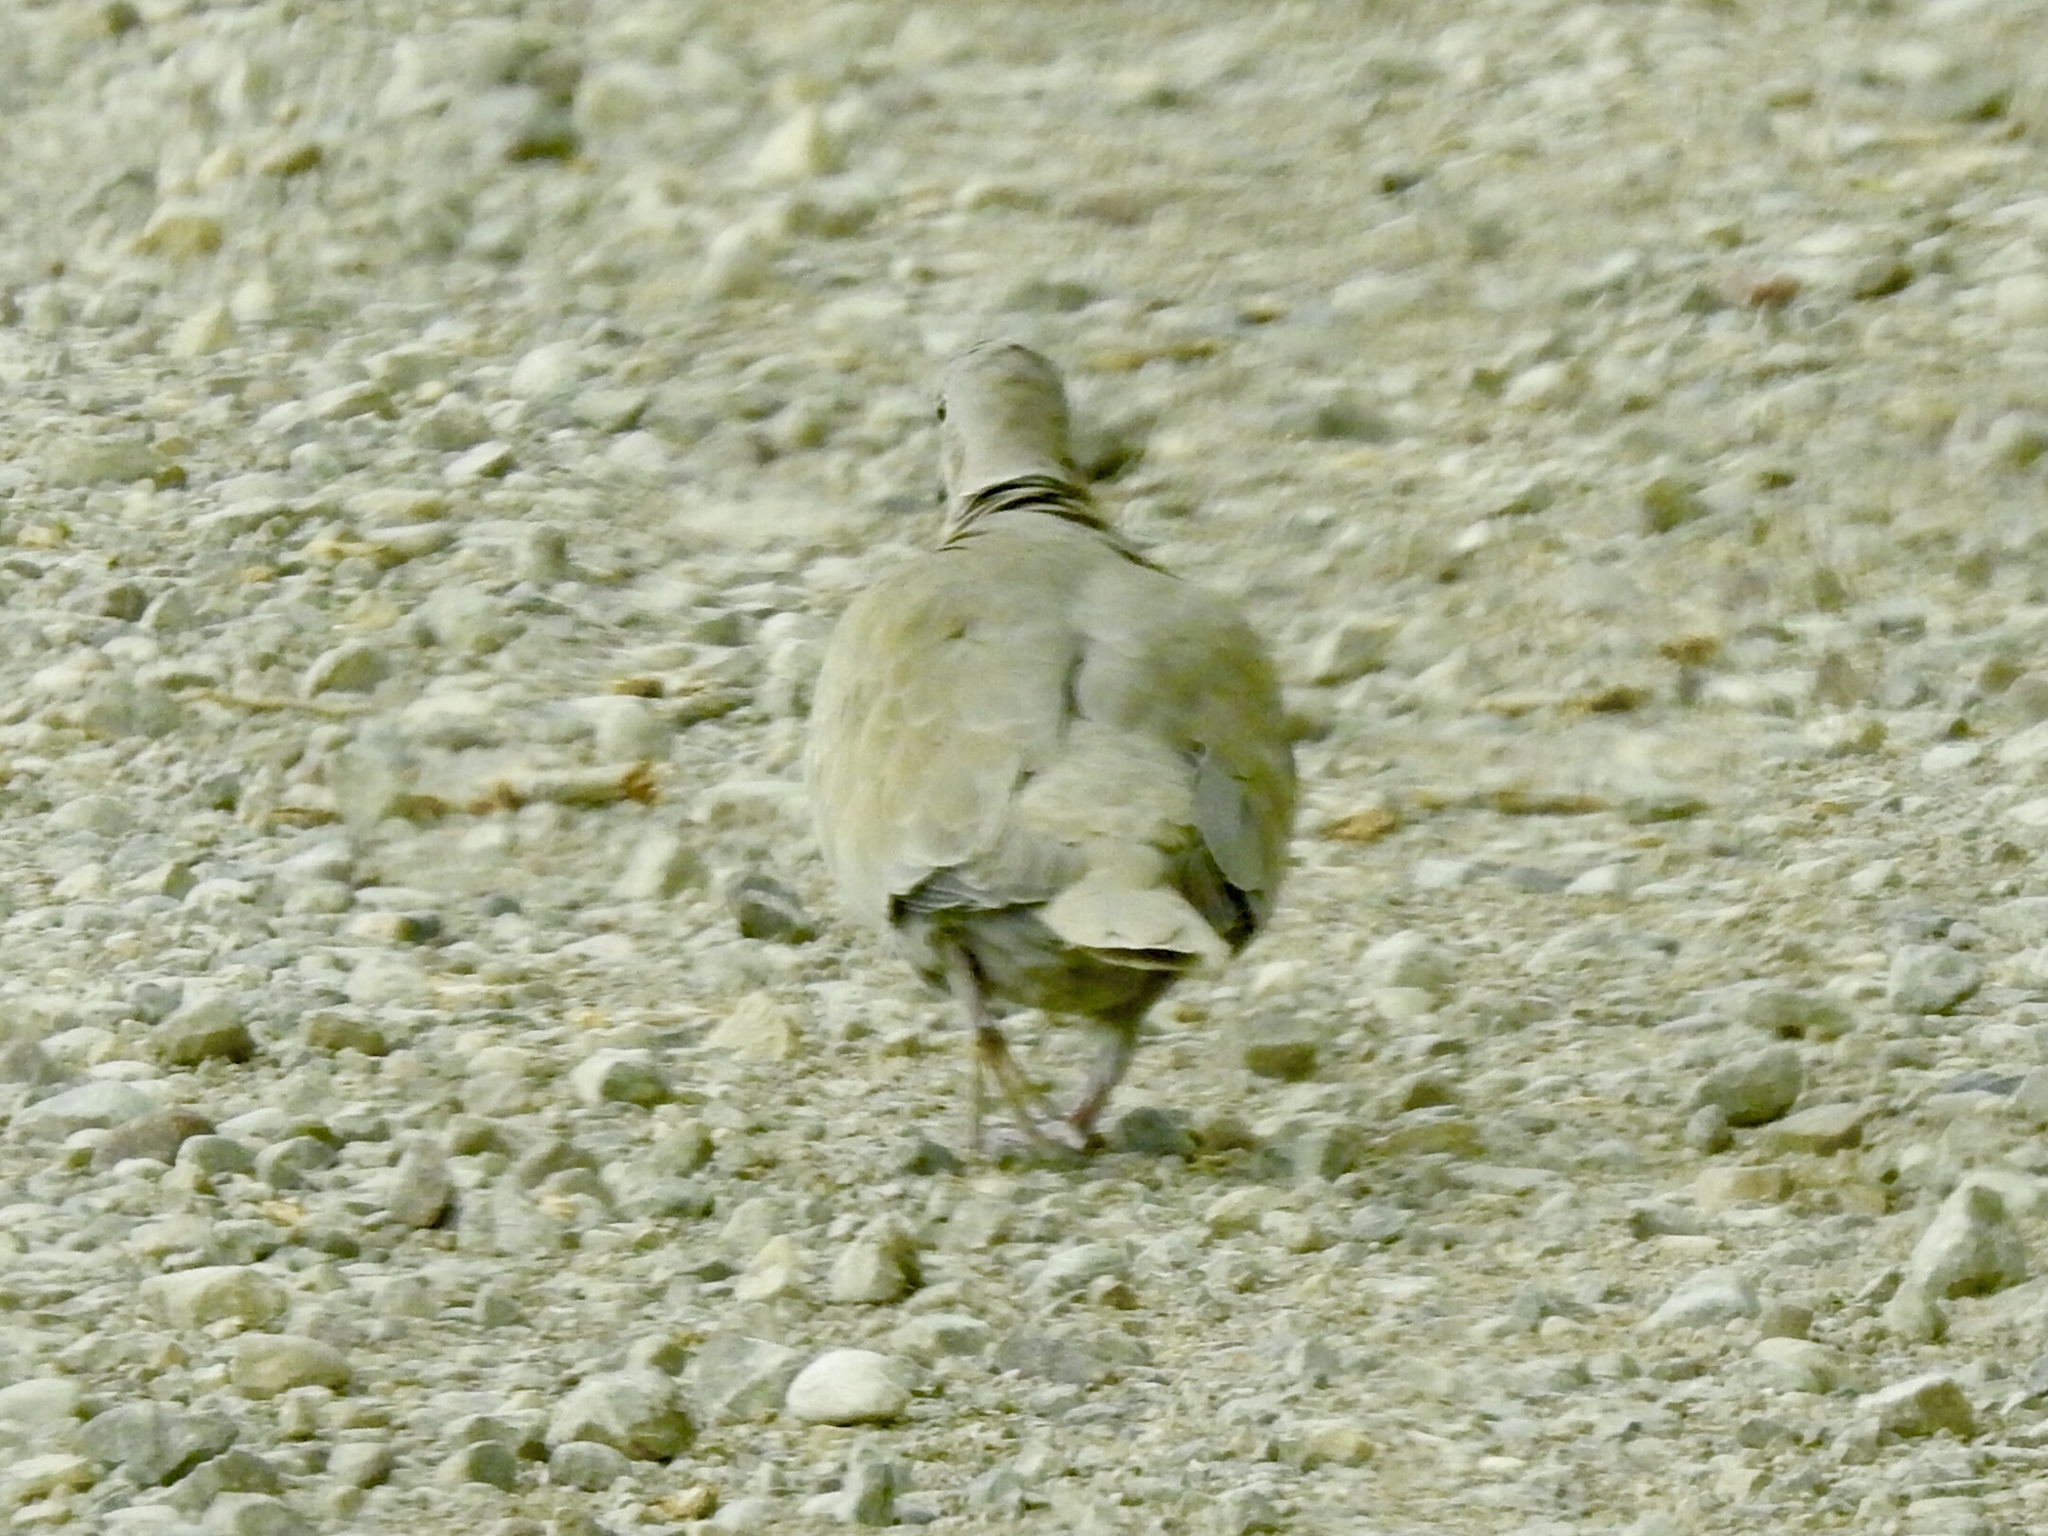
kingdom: Animalia
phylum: Chordata
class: Aves
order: Columbiformes
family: Columbidae
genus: Streptopelia
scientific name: Streptopelia decaocto
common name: Eurasian collared dove
